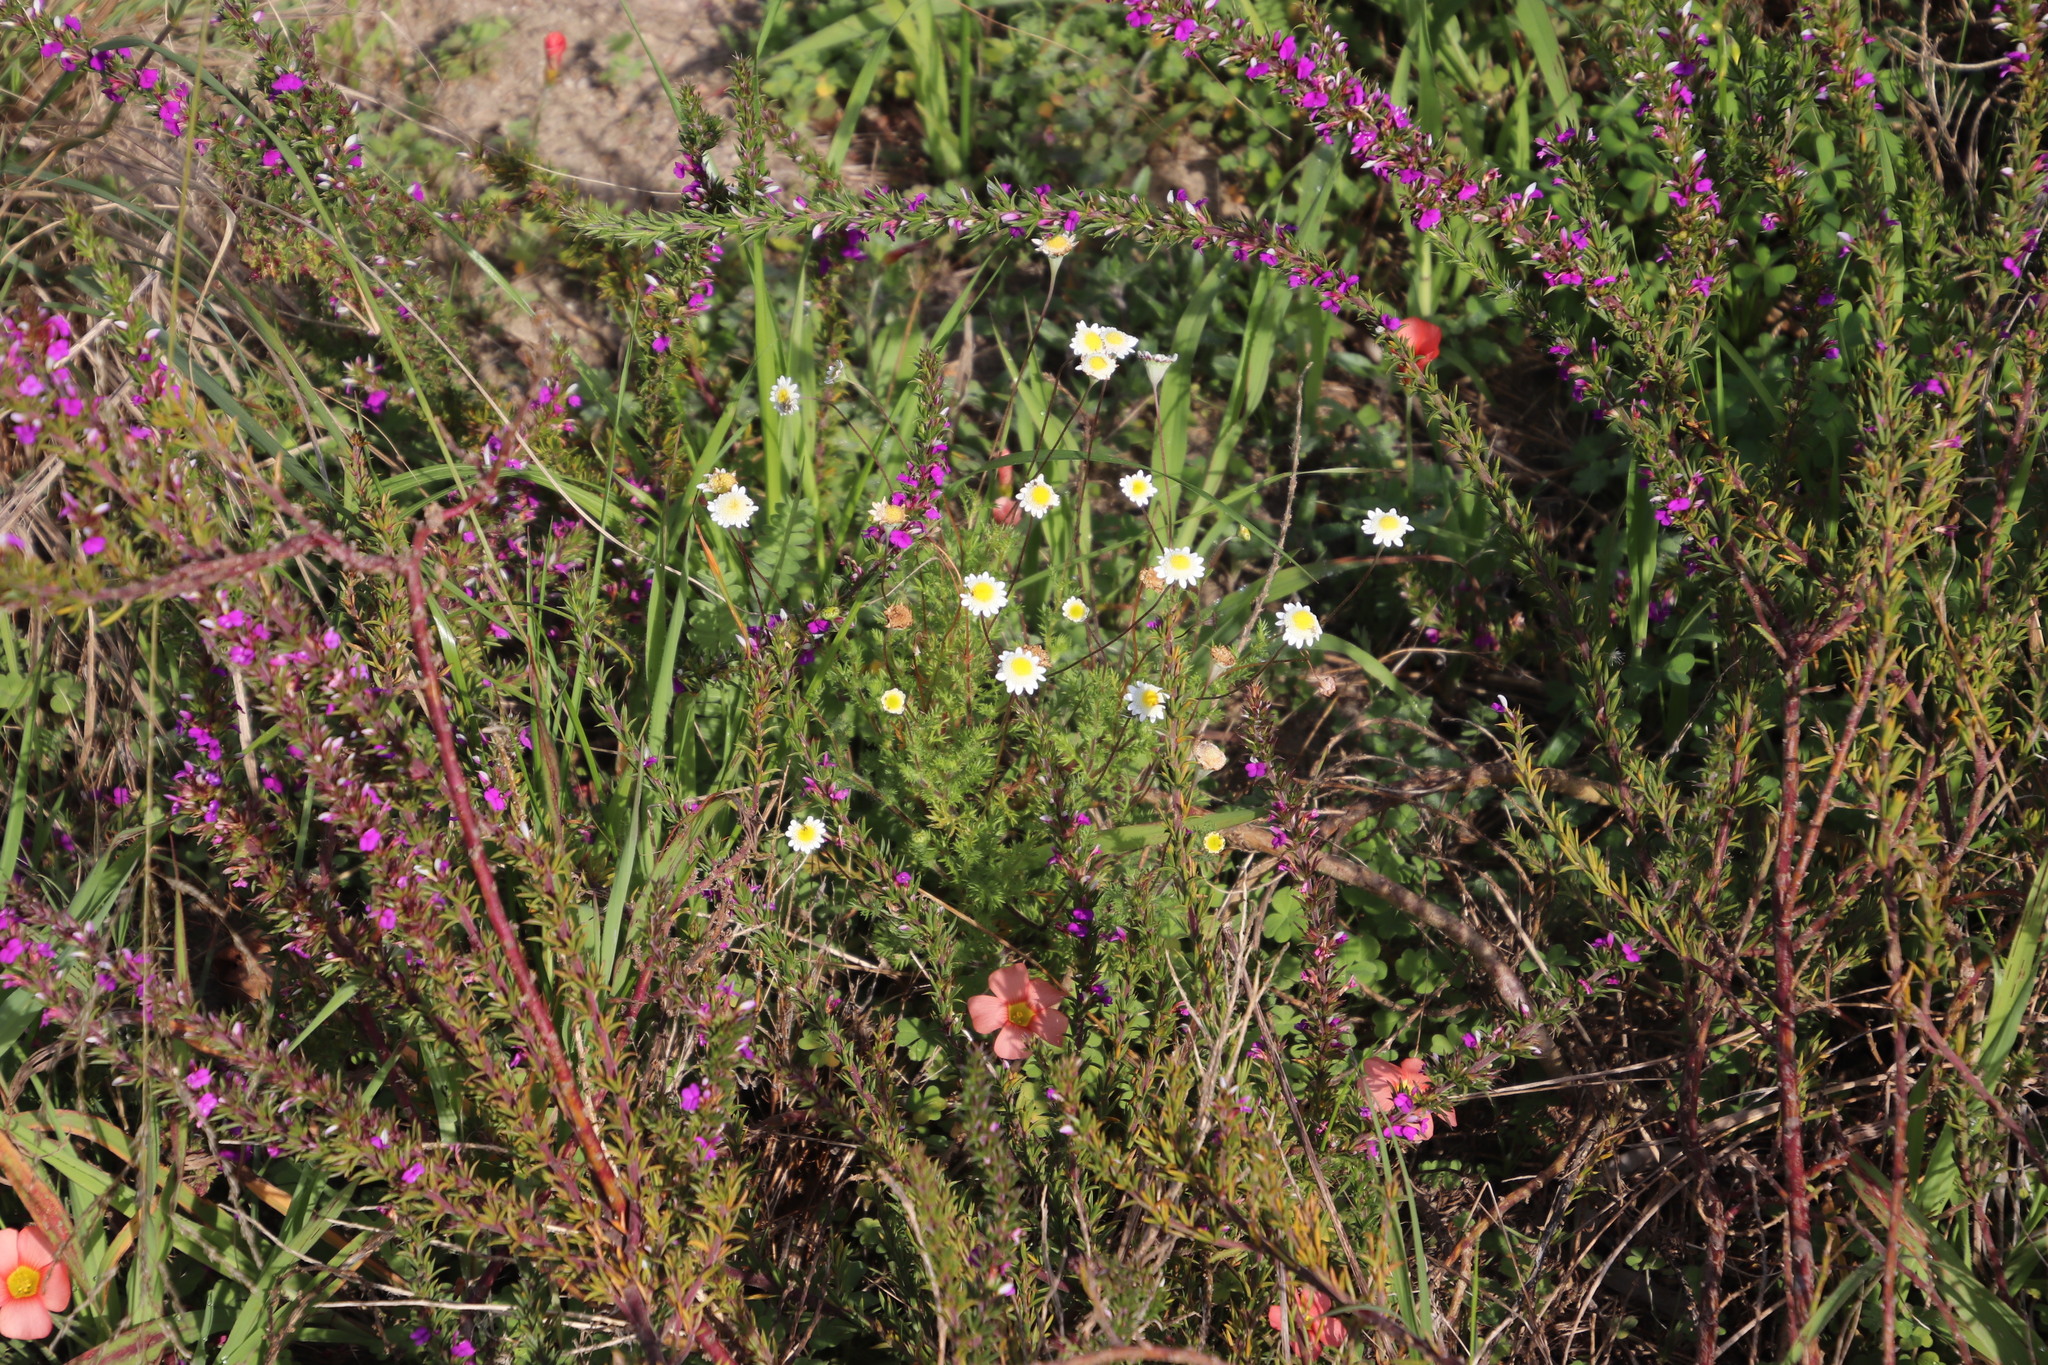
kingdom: Plantae
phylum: Tracheophyta
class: Magnoliopsida
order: Asterales
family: Asteraceae
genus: Cotula
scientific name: Cotula turbinata
